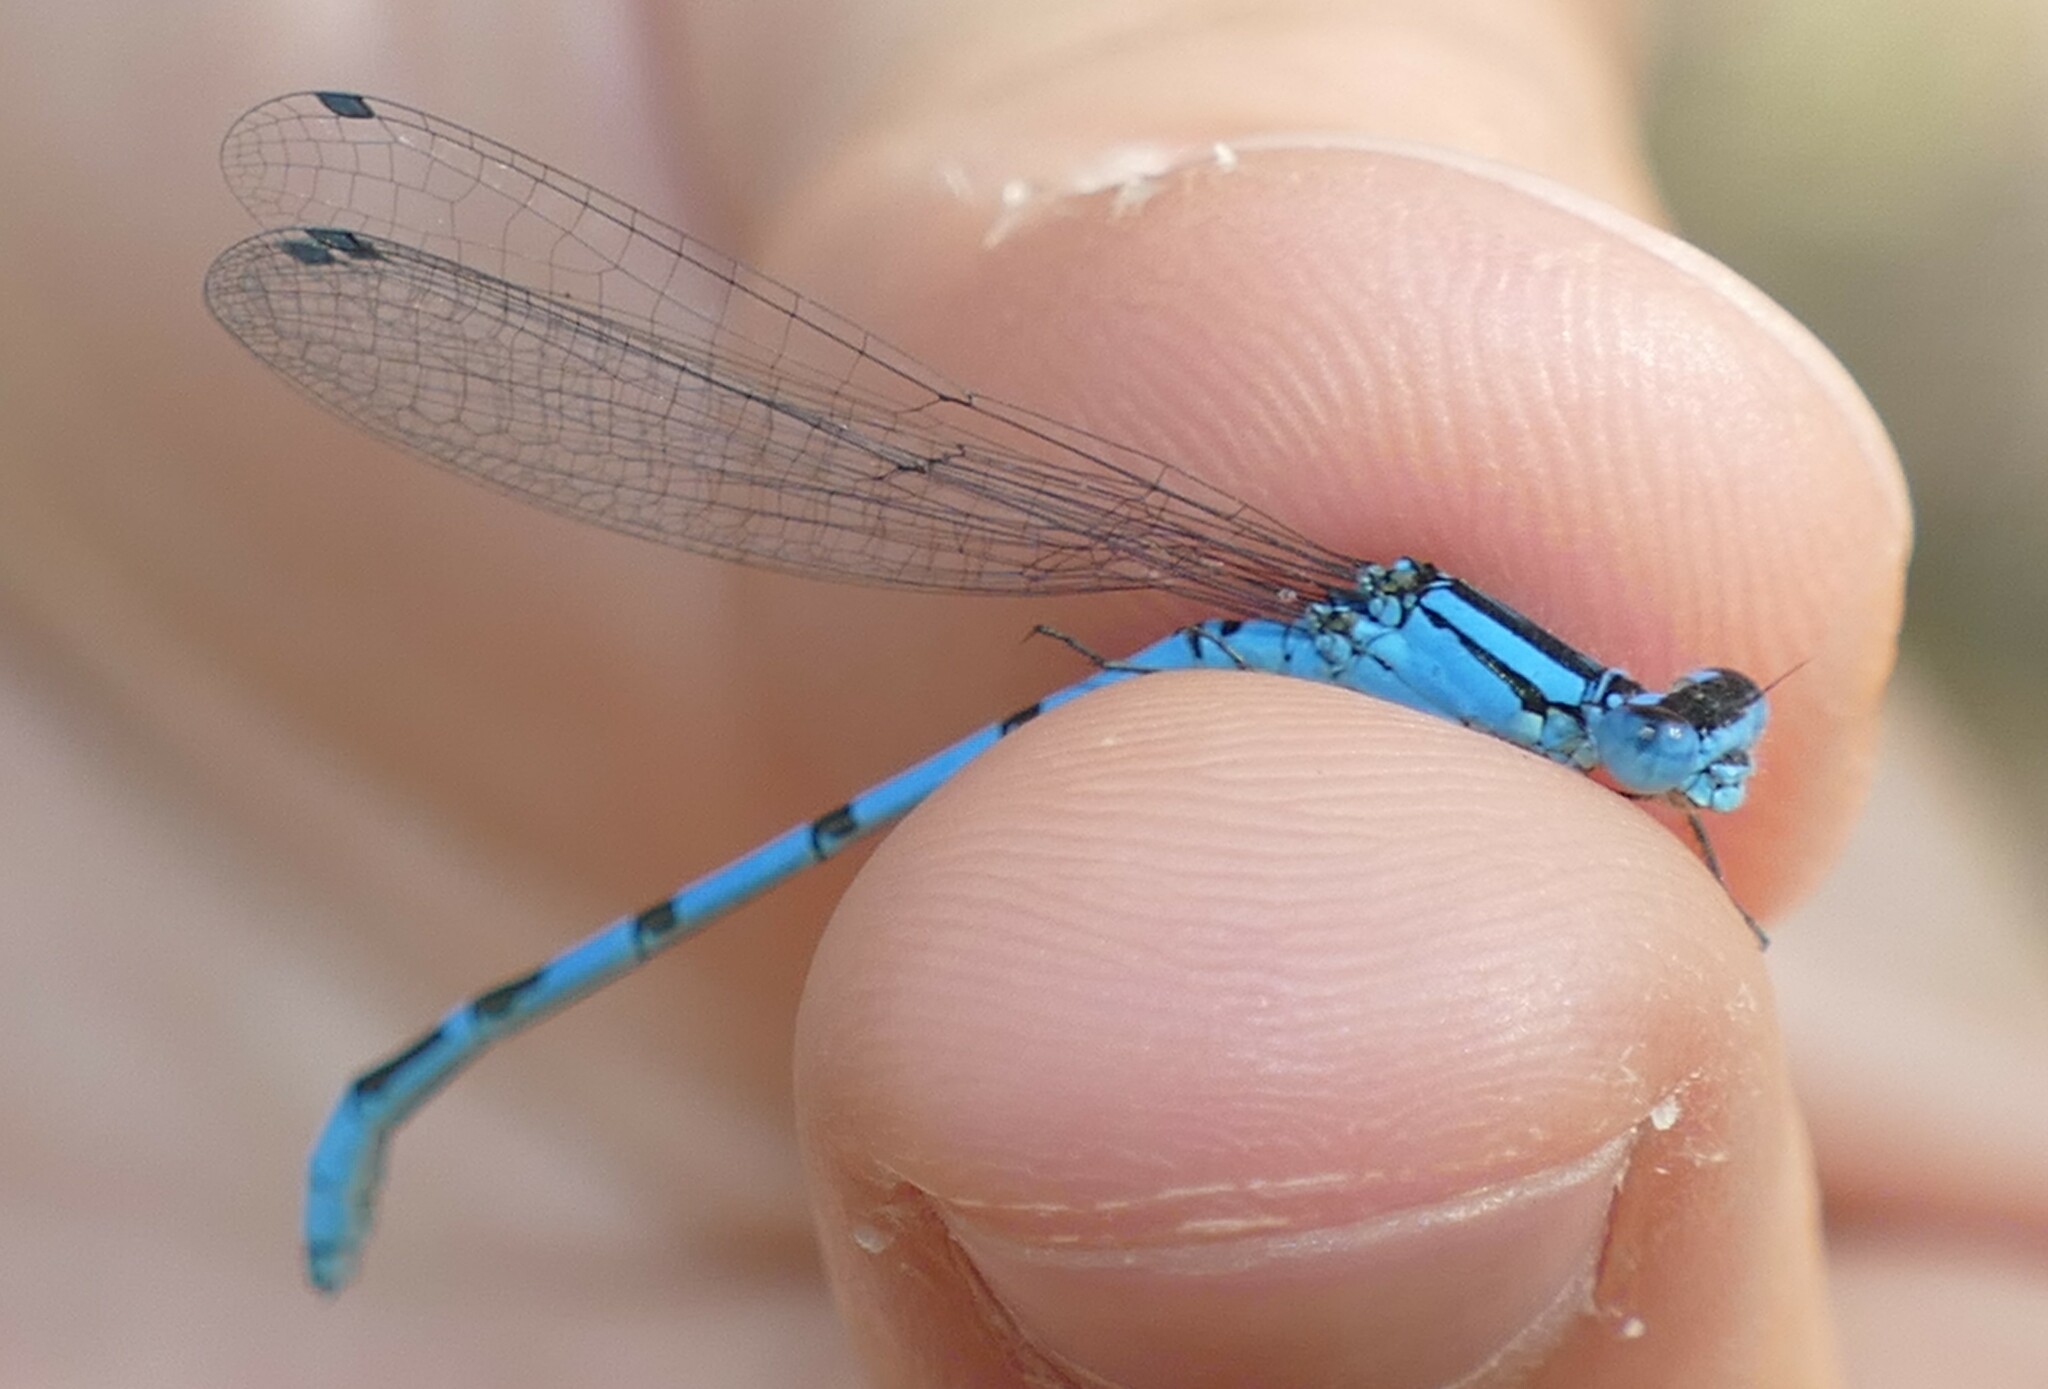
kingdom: Animalia
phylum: Arthropoda
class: Insecta
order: Odonata
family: Coenagrionidae
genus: Enallagma
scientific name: Enallagma cyathigerum
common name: Common blue damselfly
